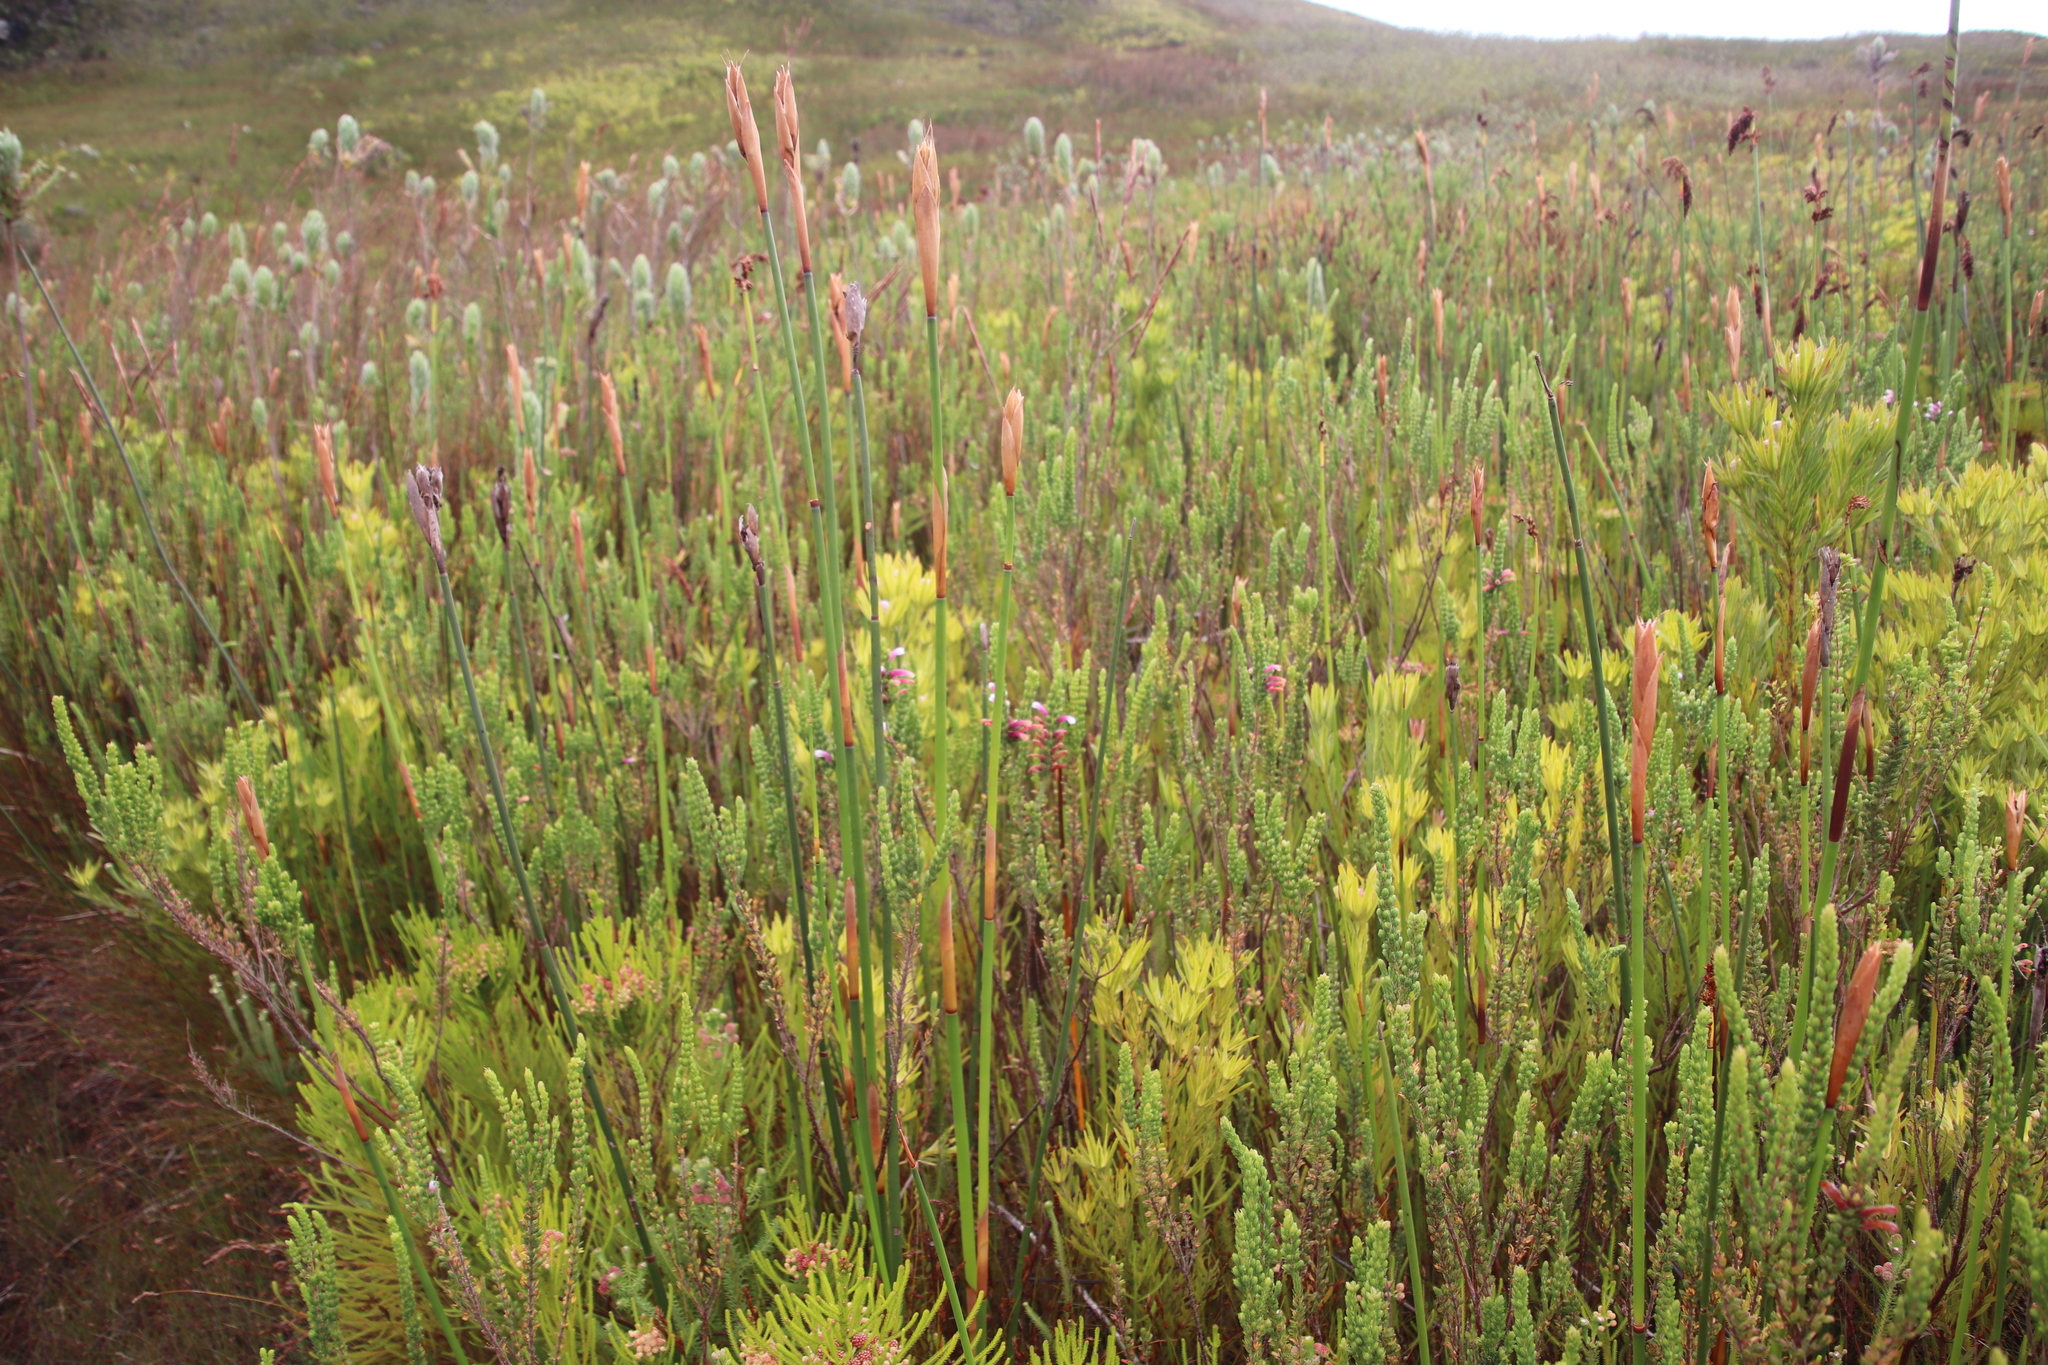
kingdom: Plantae
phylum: Tracheophyta
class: Magnoliopsida
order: Ericales
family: Ericaceae
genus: Erica
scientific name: Erica macowanii
